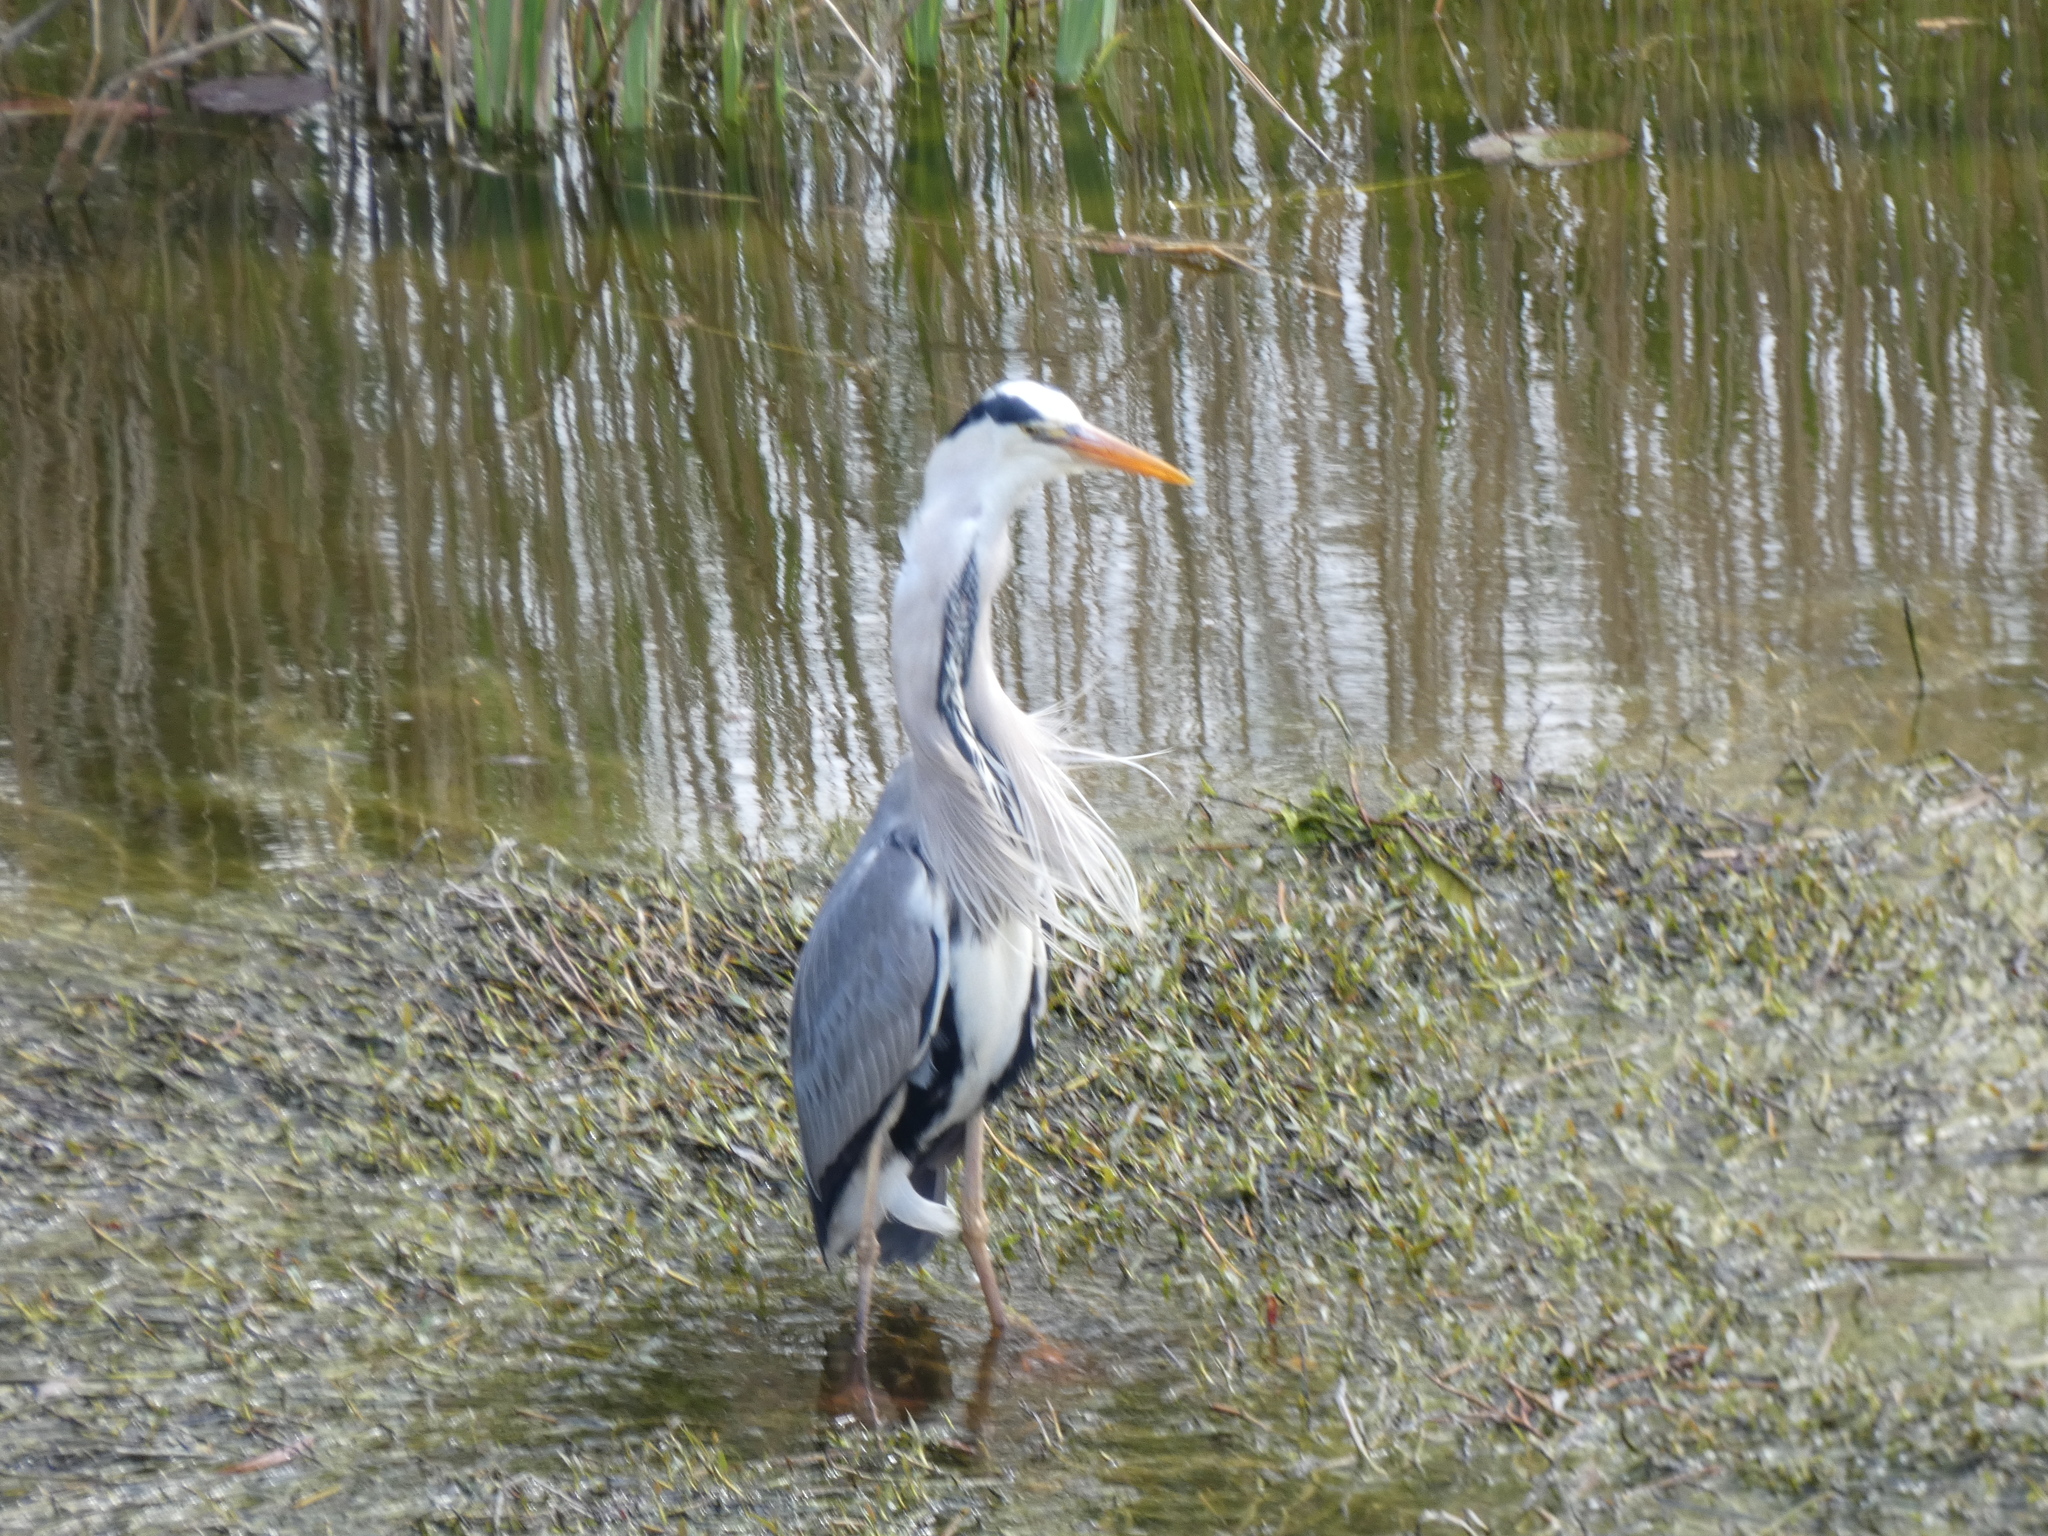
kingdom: Animalia
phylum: Chordata
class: Aves
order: Pelecaniformes
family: Ardeidae
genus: Ardea
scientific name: Ardea cinerea
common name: Grey heron
